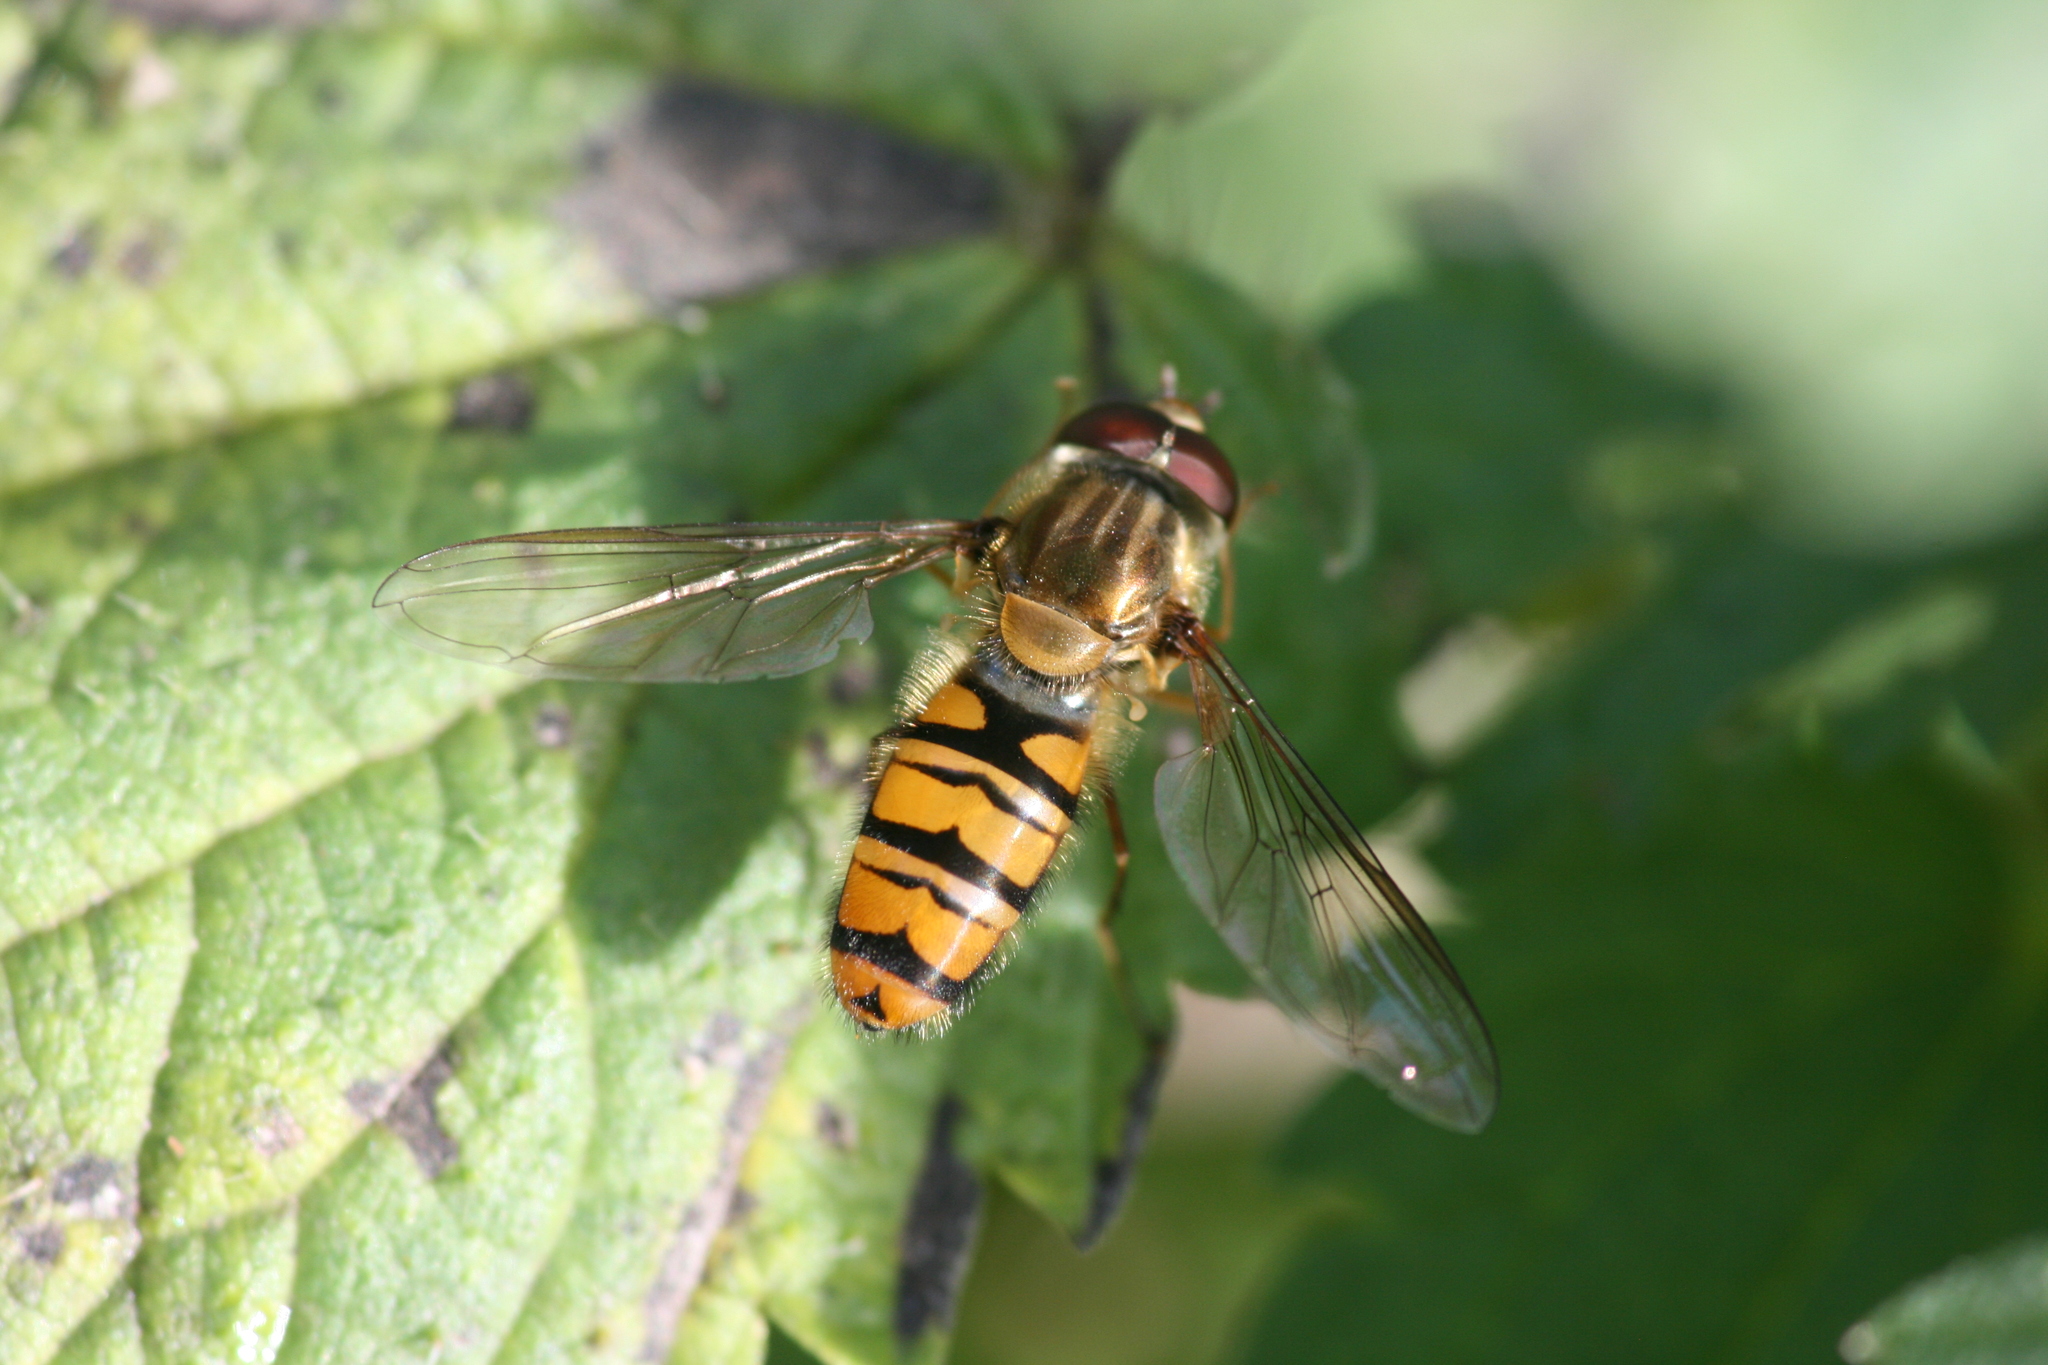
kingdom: Animalia
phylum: Arthropoda
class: Insecta
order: Diptera
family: Syrphidae
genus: Episyrphus
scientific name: Episyrphus balteatus
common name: Marmalade hoverfly
